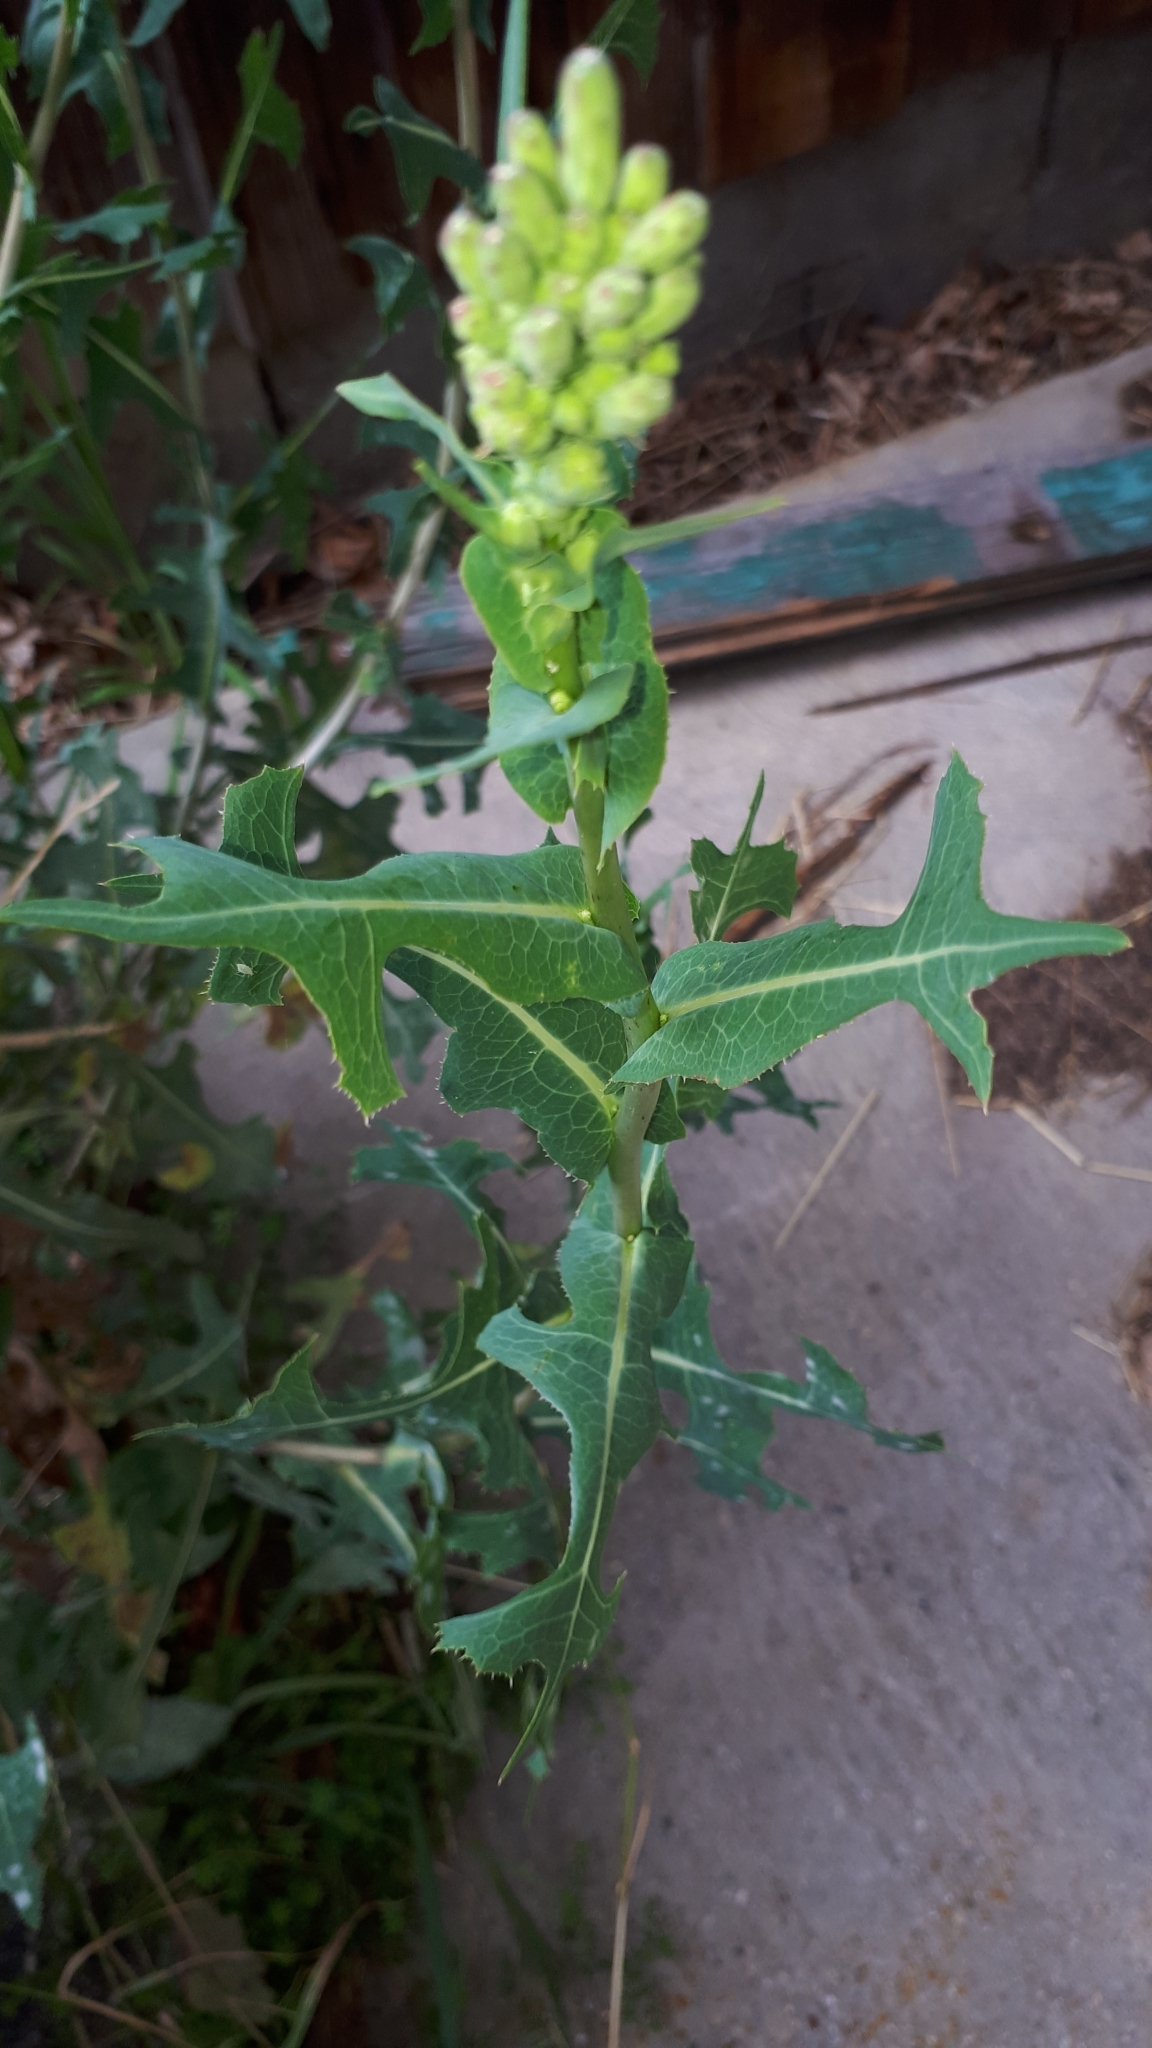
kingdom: Plantae
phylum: Tracheophyta
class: Magnoliopsida
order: Asterales
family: Asteraceae
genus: Lactuca
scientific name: Lactuca serriola
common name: Prickly lettuce
